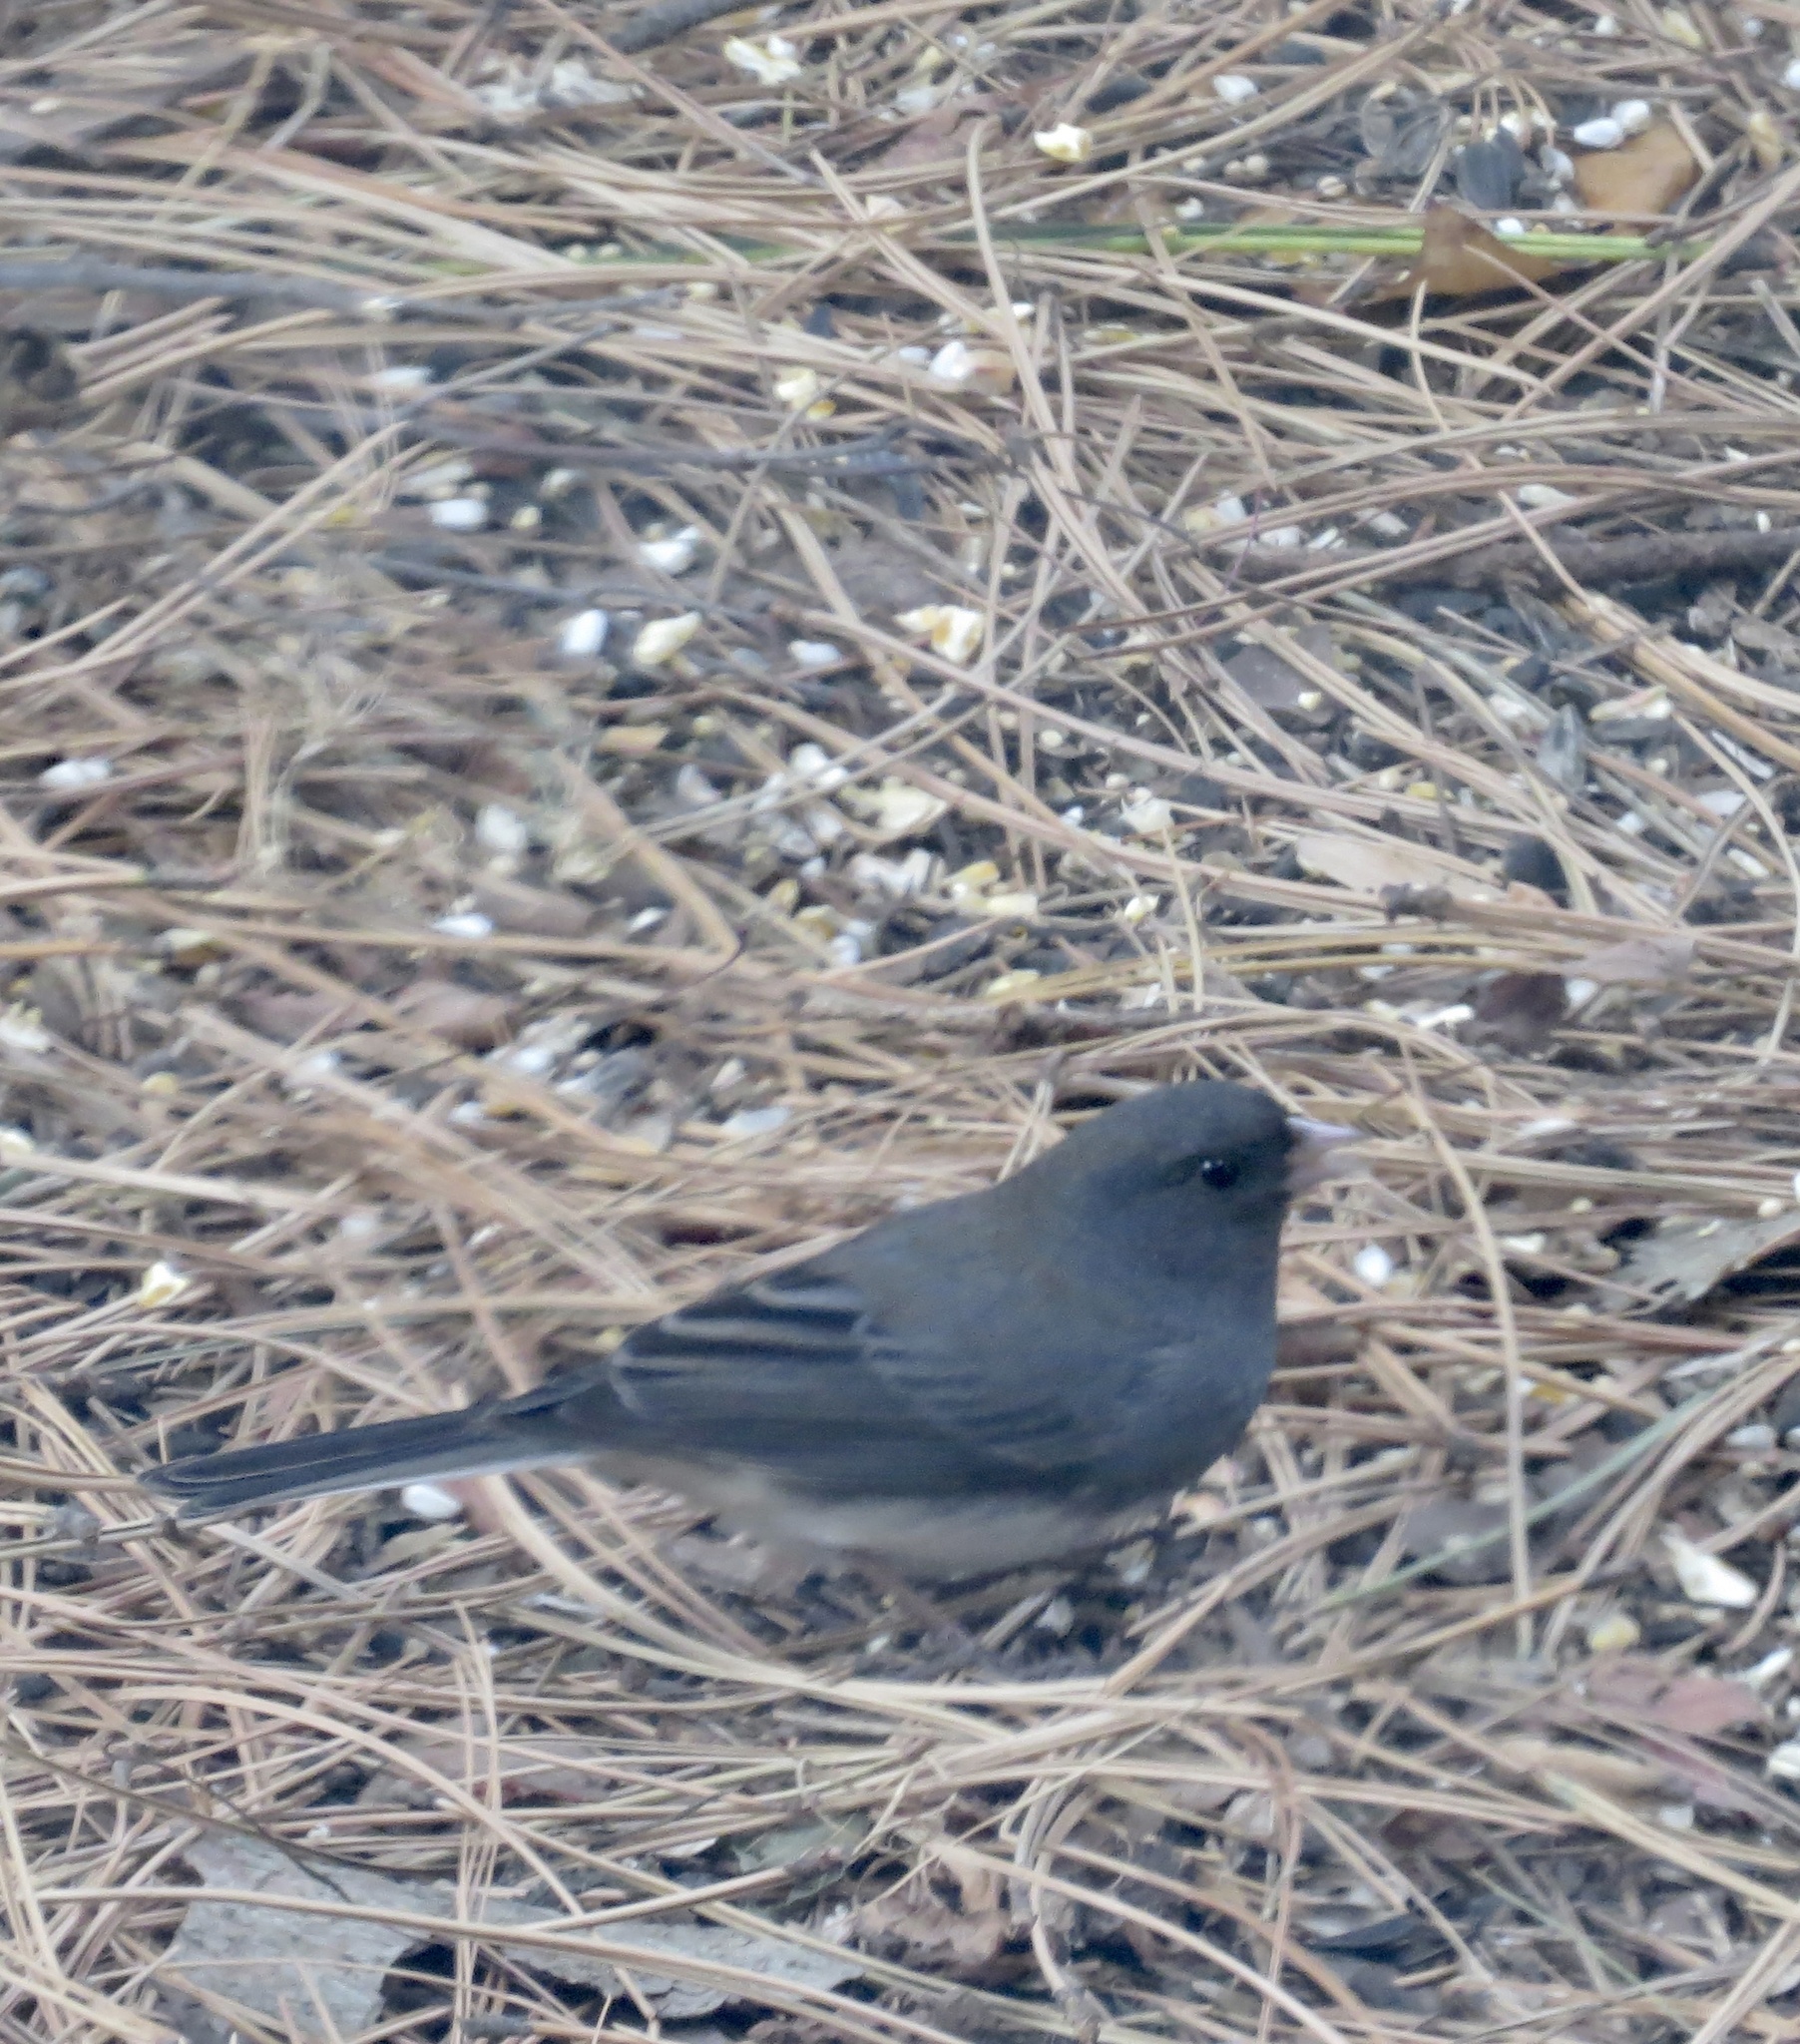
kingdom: Animalia
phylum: Chordata
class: Aves
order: Passeriformes
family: Passerellidae
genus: Junco
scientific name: Junco hyemalis
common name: Dark-eyed junco
